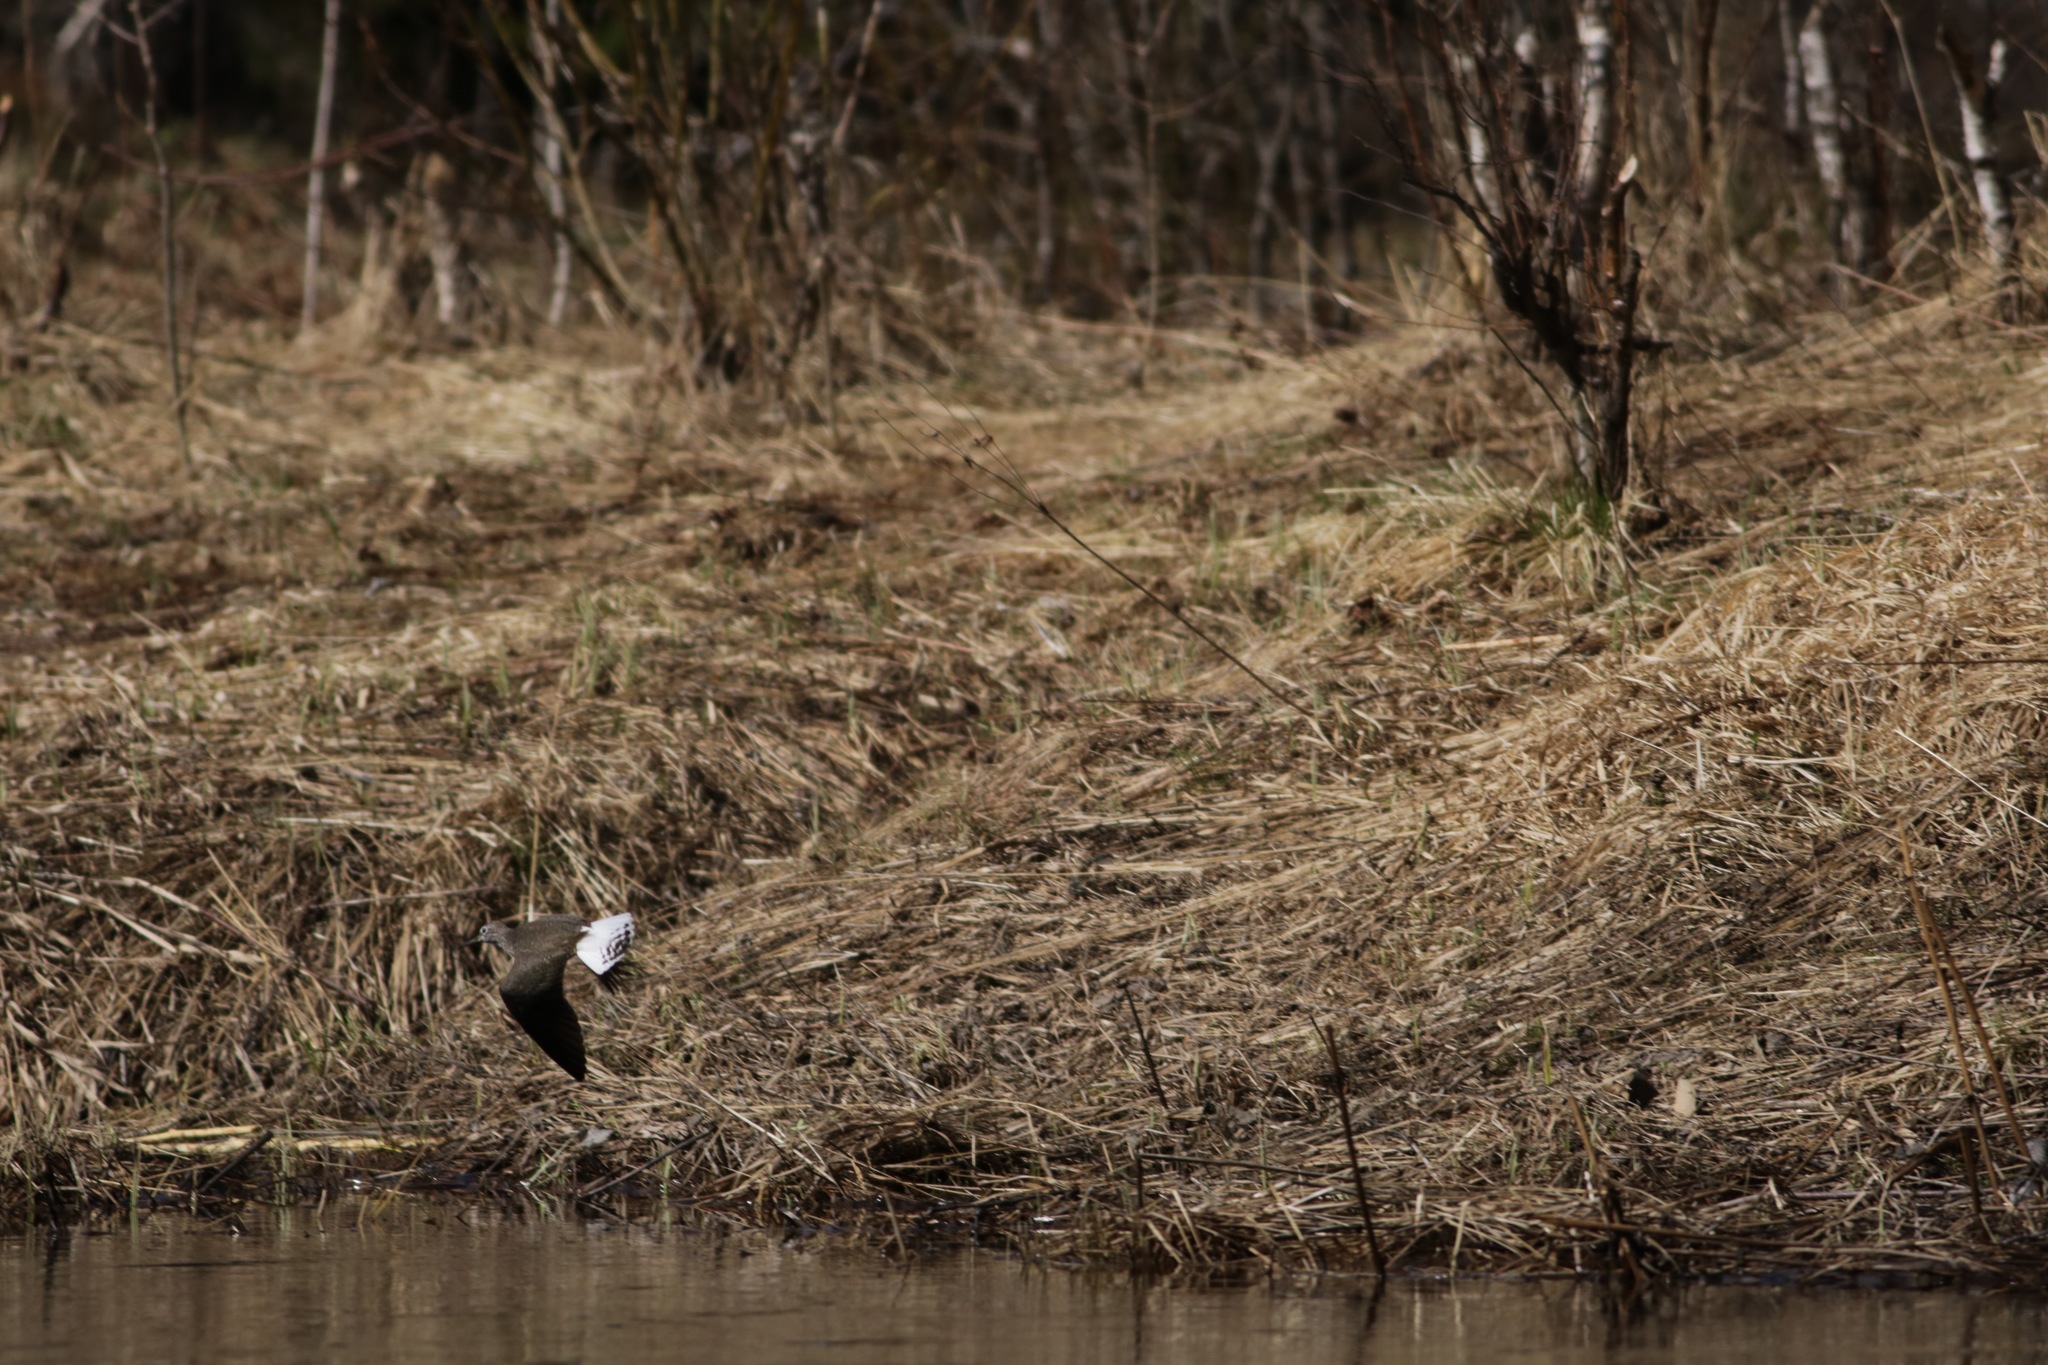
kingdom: Animalia
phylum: Chordata
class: Aves
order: Charadriiformes
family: Scolopacidae
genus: Tringa
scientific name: Tringa ochropus
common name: Green sandpiper
